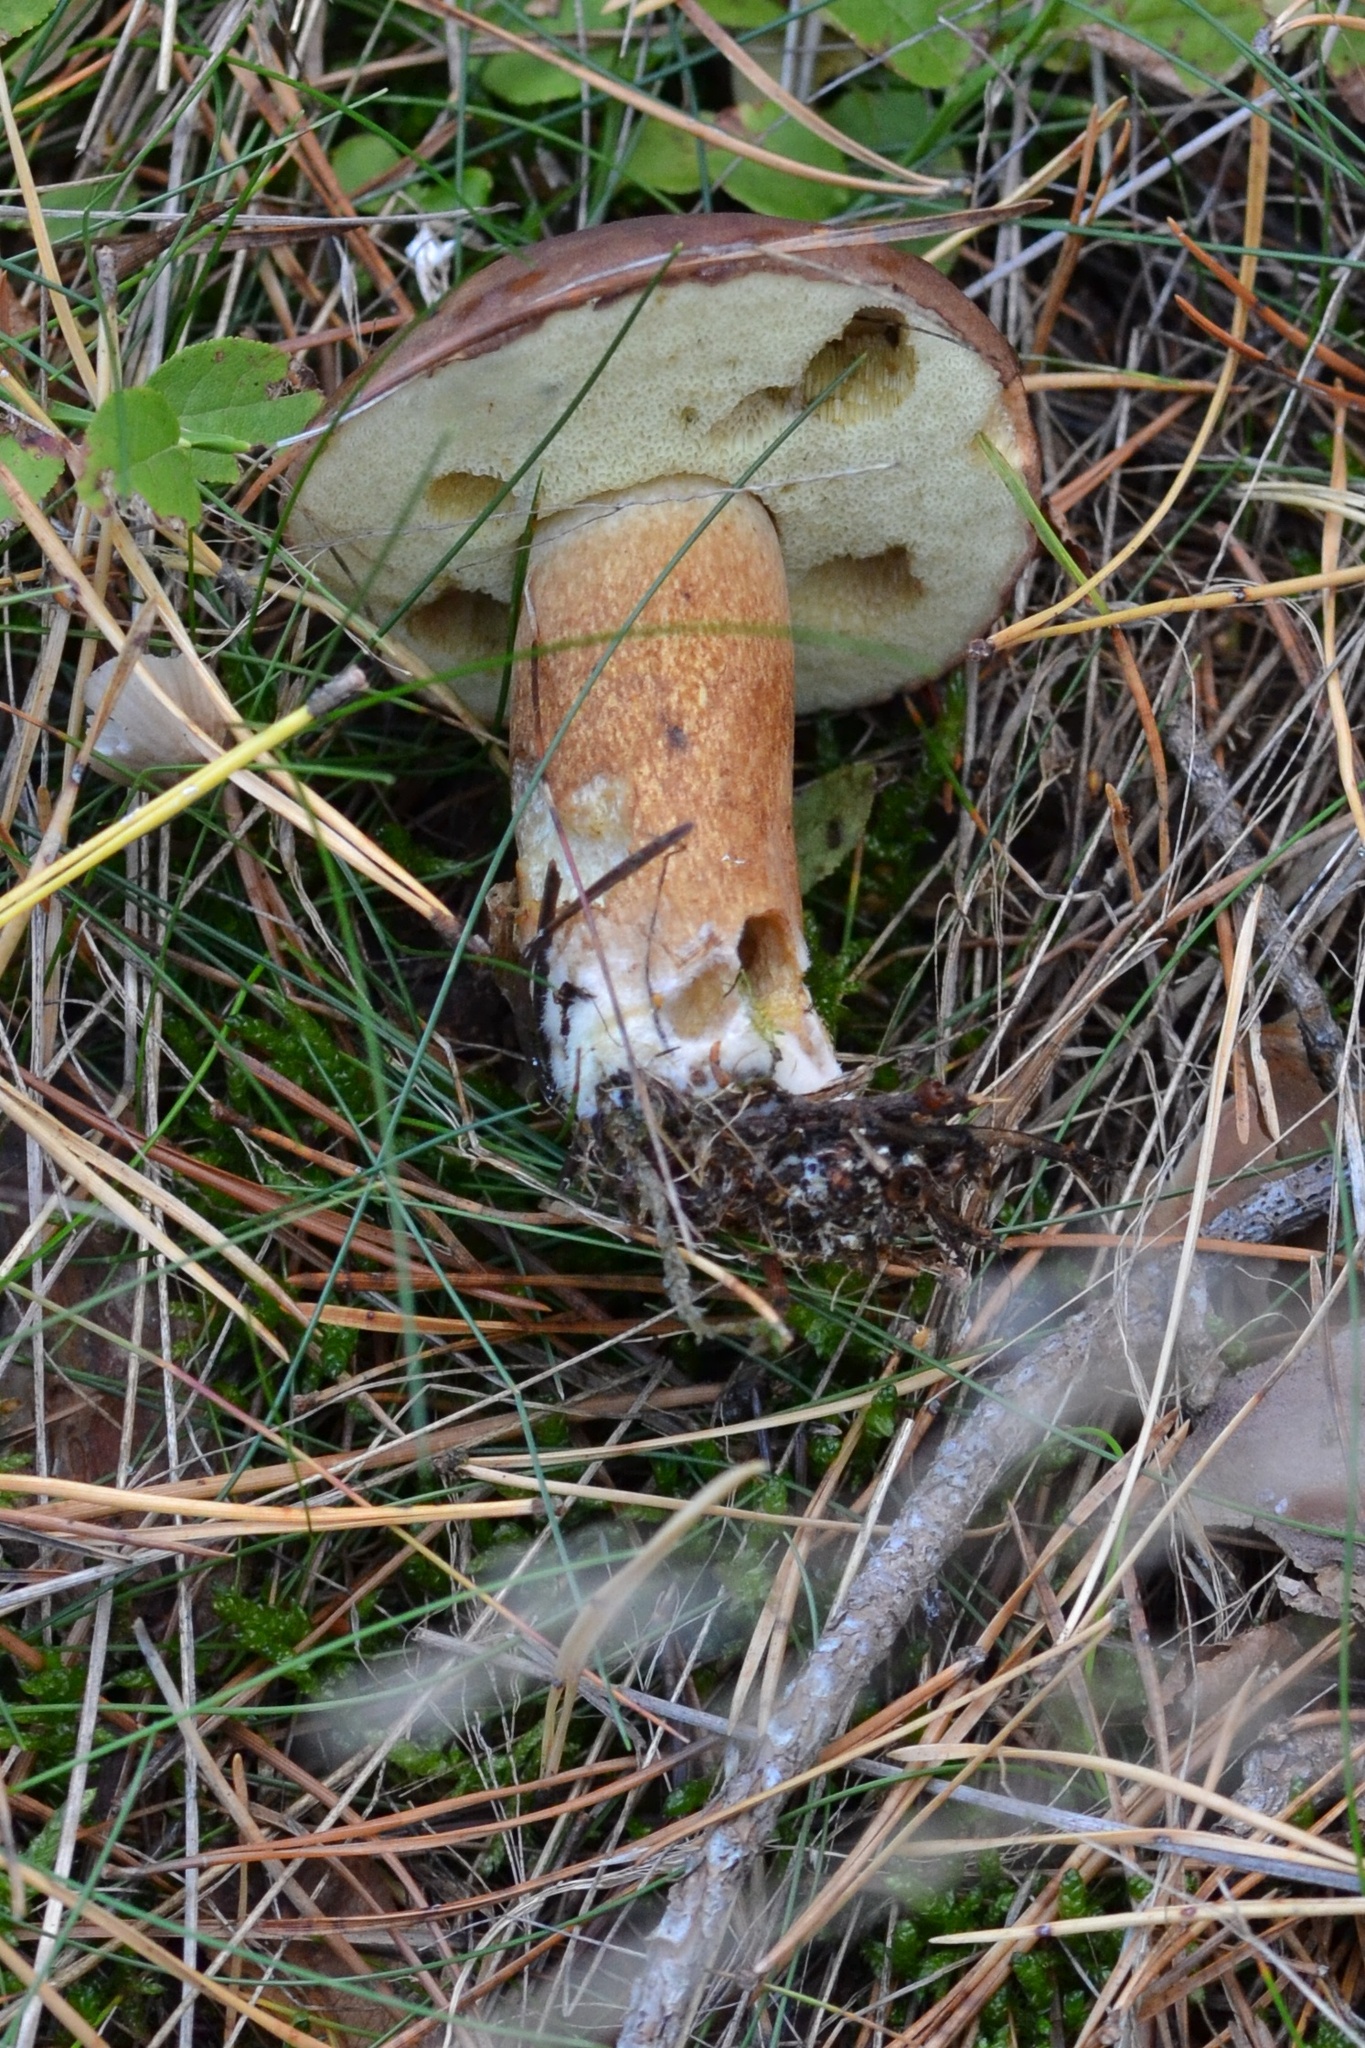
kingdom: Fungi
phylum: Basidiomycota
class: Agaricomycetes
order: Boletales
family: Boletaceae
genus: Imleria
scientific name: Imleria badia
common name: Bay bolete
